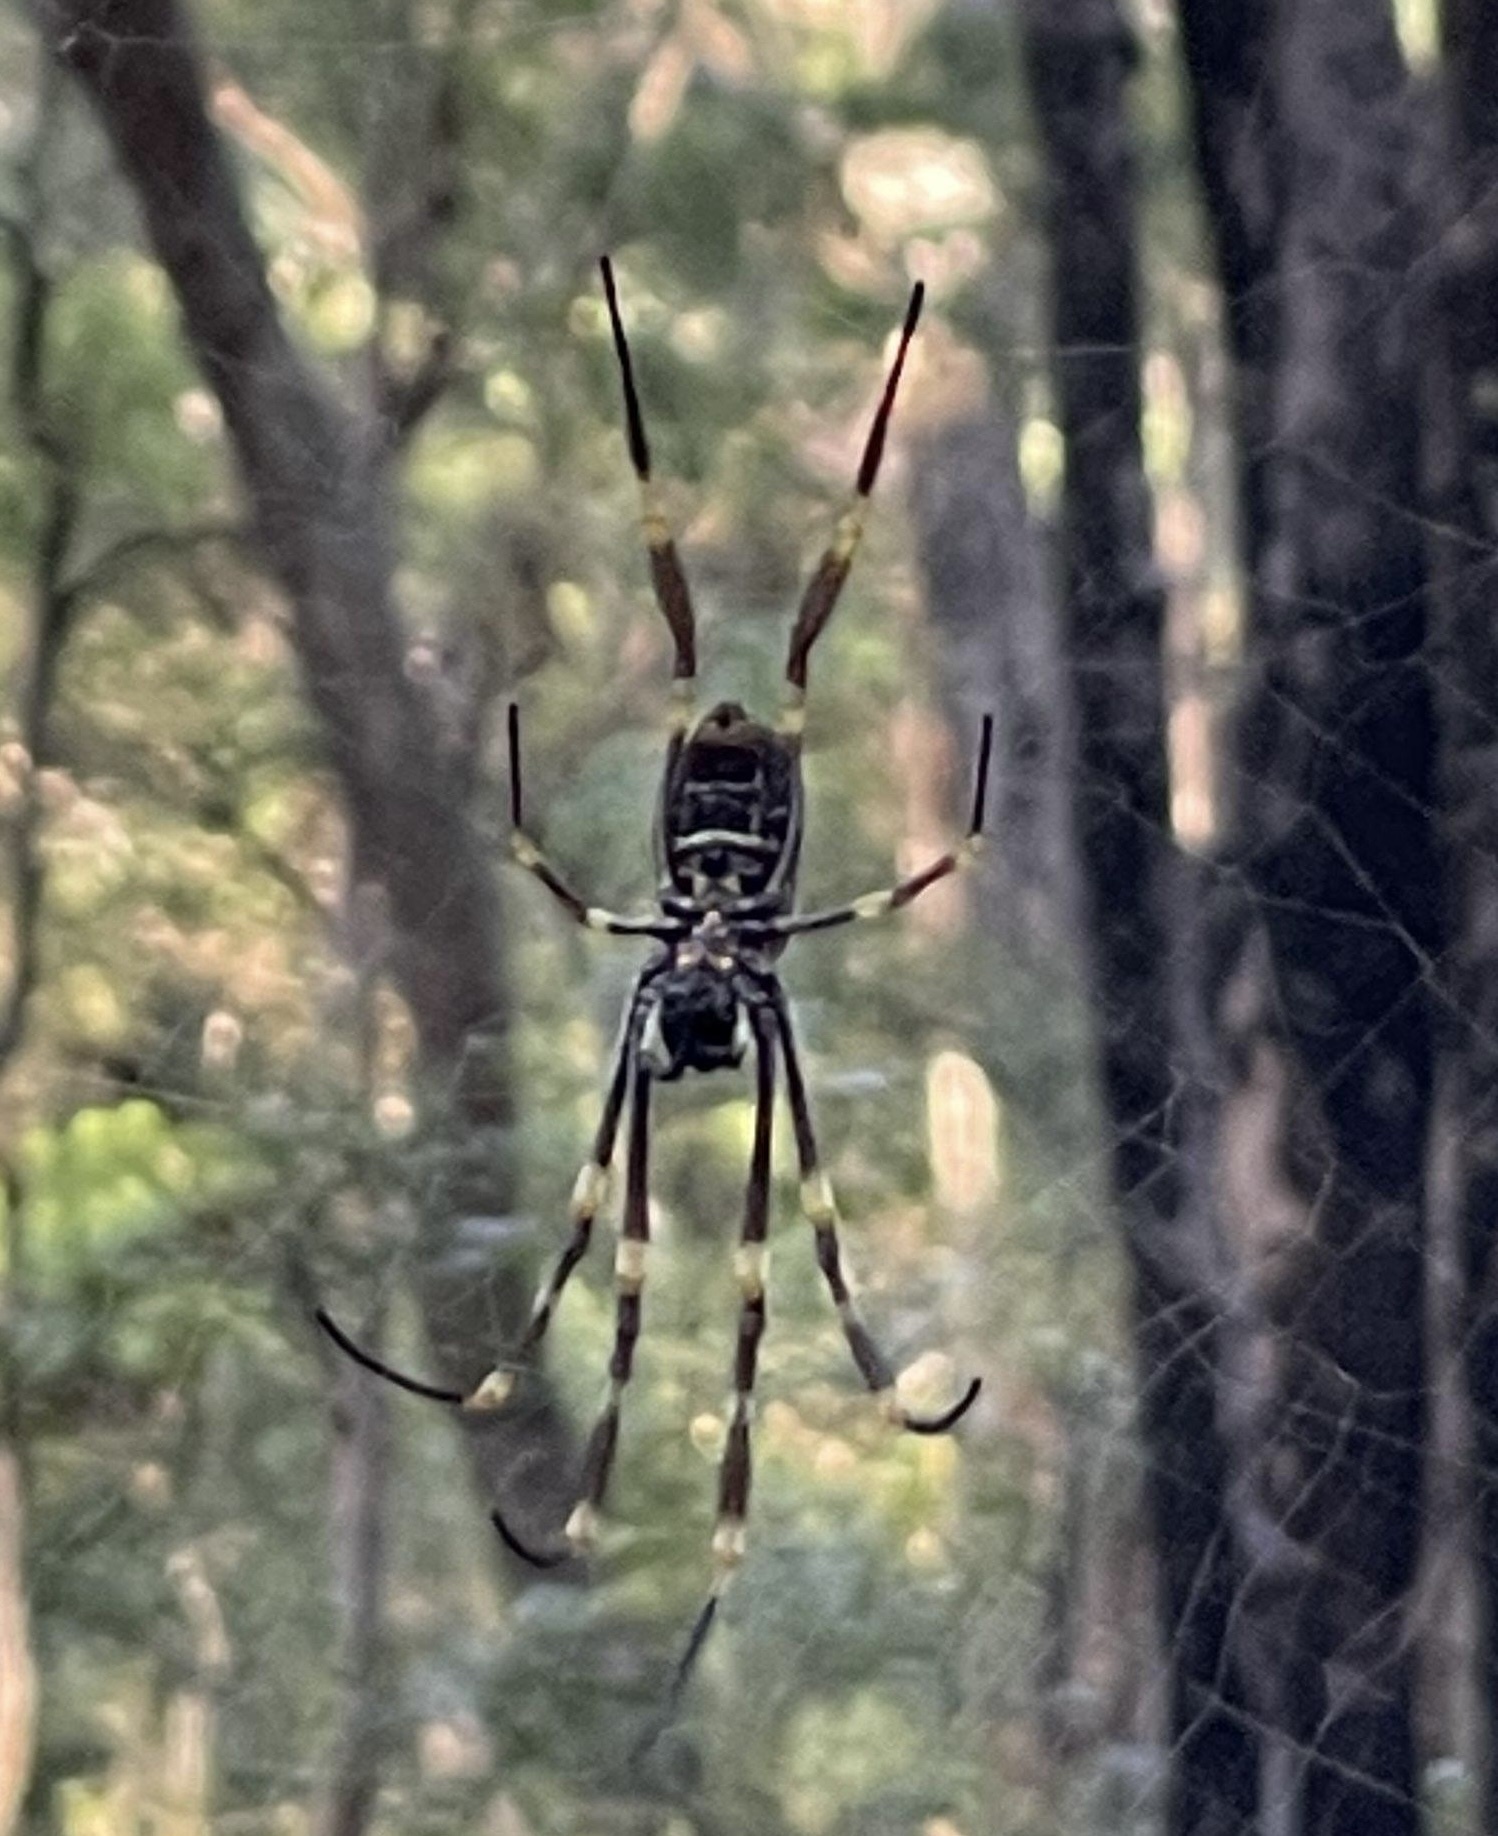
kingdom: Animalia
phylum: Arthropoda
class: Arachnida
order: Araneae
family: Araneidae
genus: Trichonephila
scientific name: Trichonephila plumipes
